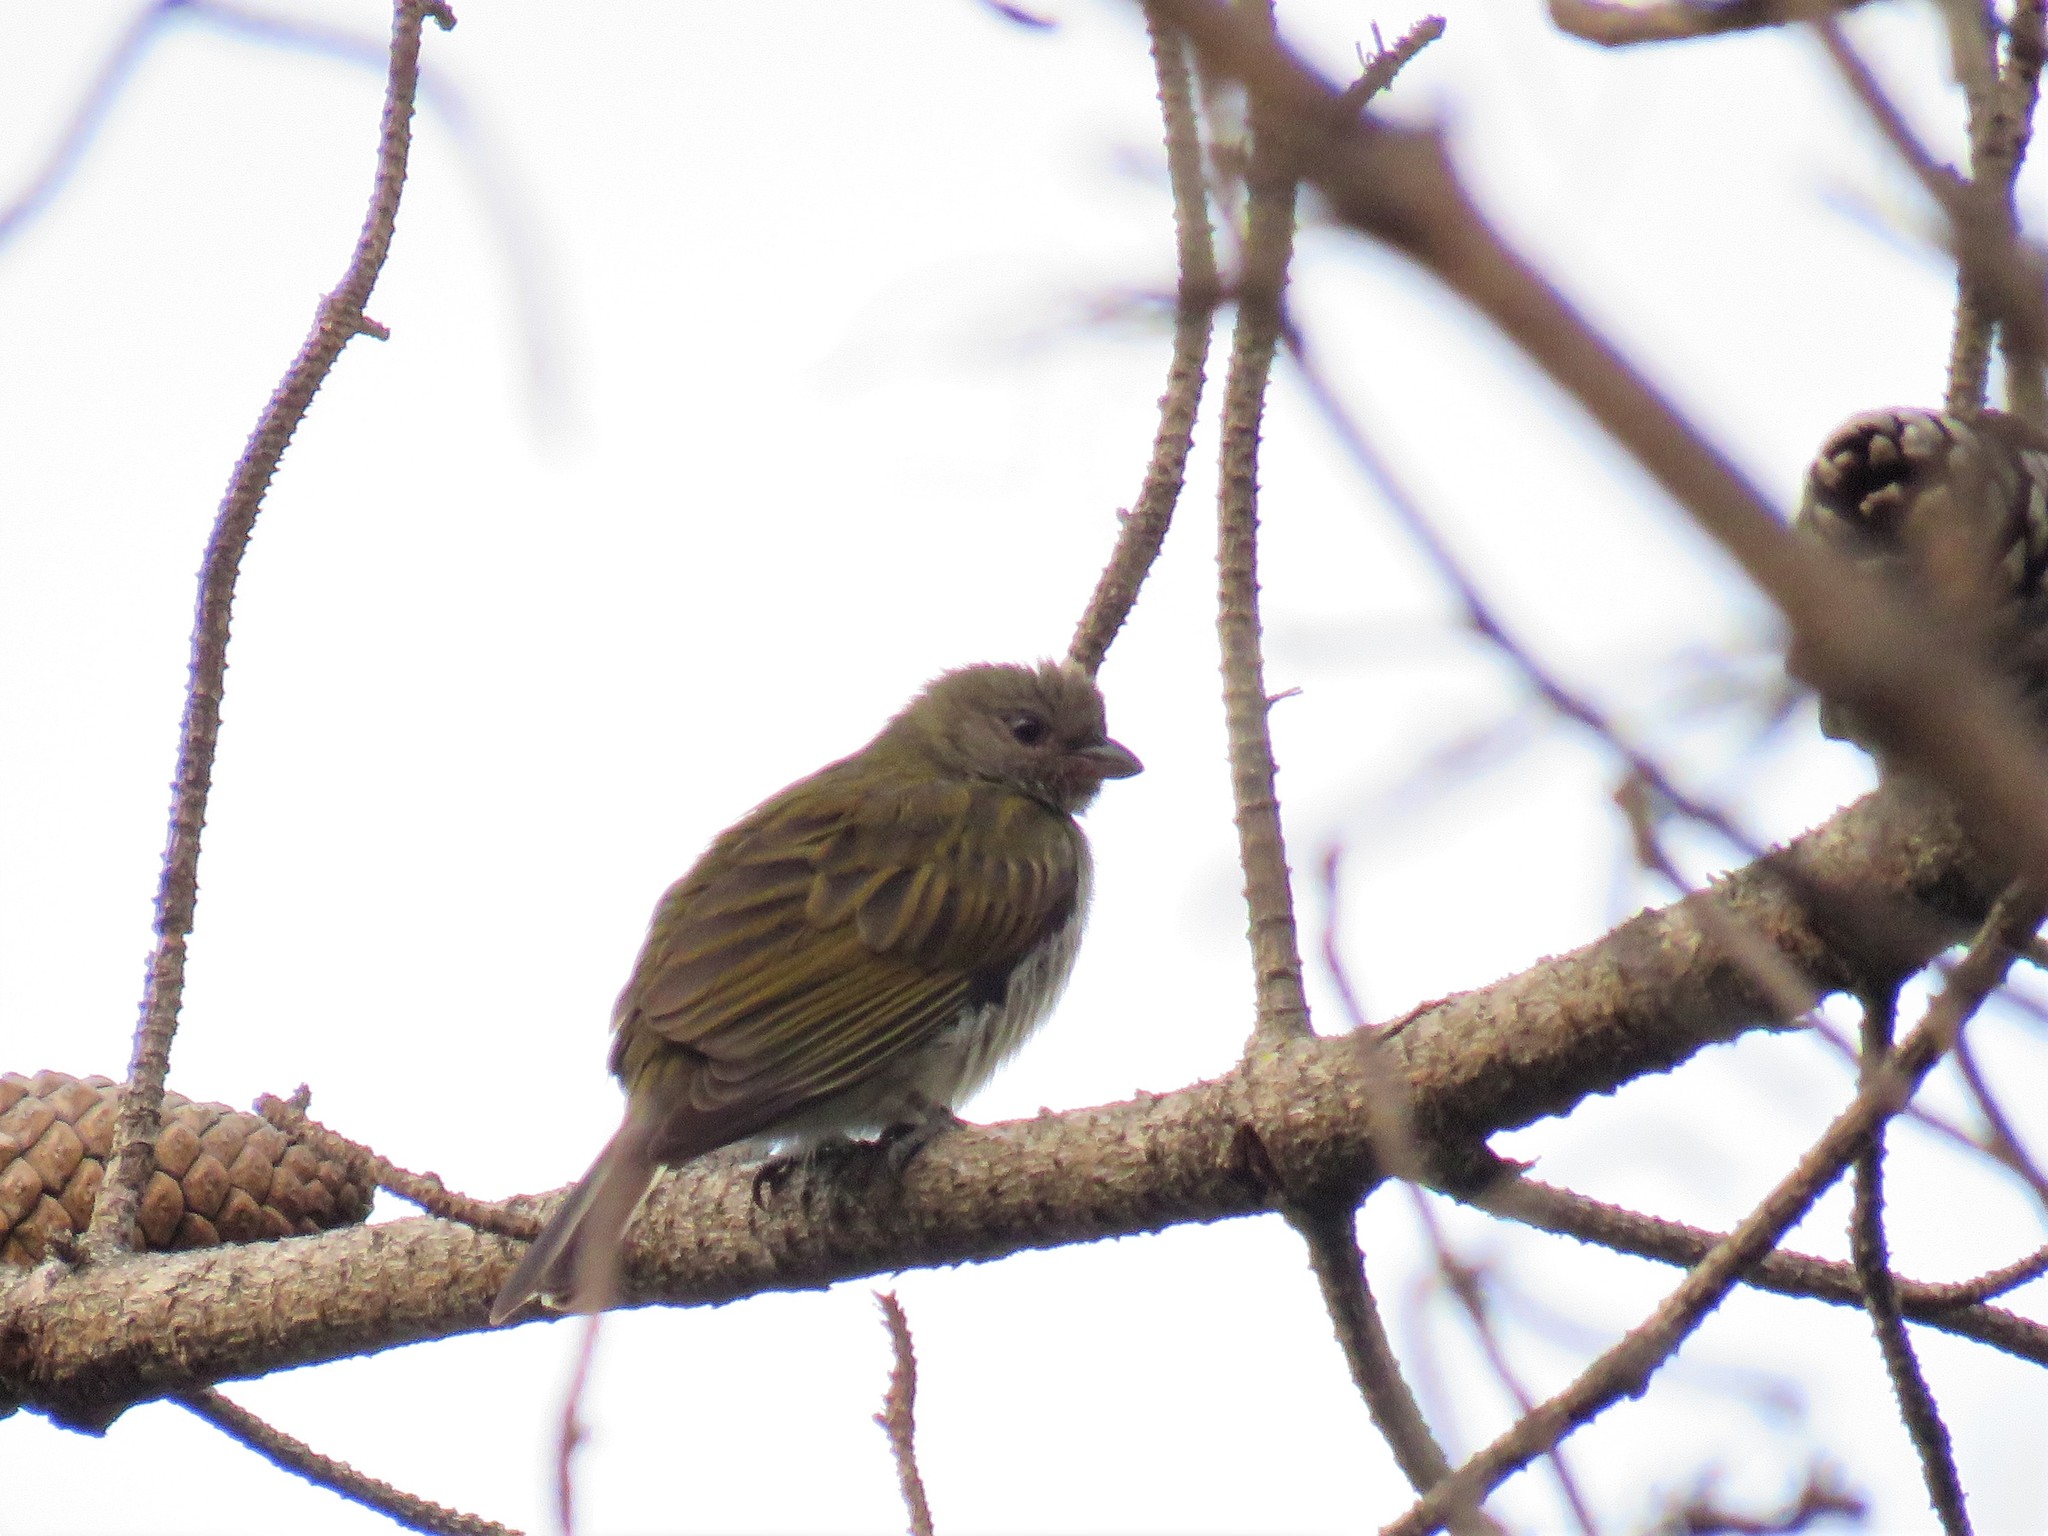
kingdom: Animalia
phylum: Chordata
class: Aves
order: Piciformes
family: Indicatoridae
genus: Indicator
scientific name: Indicator minor
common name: Lesser honeyguide
